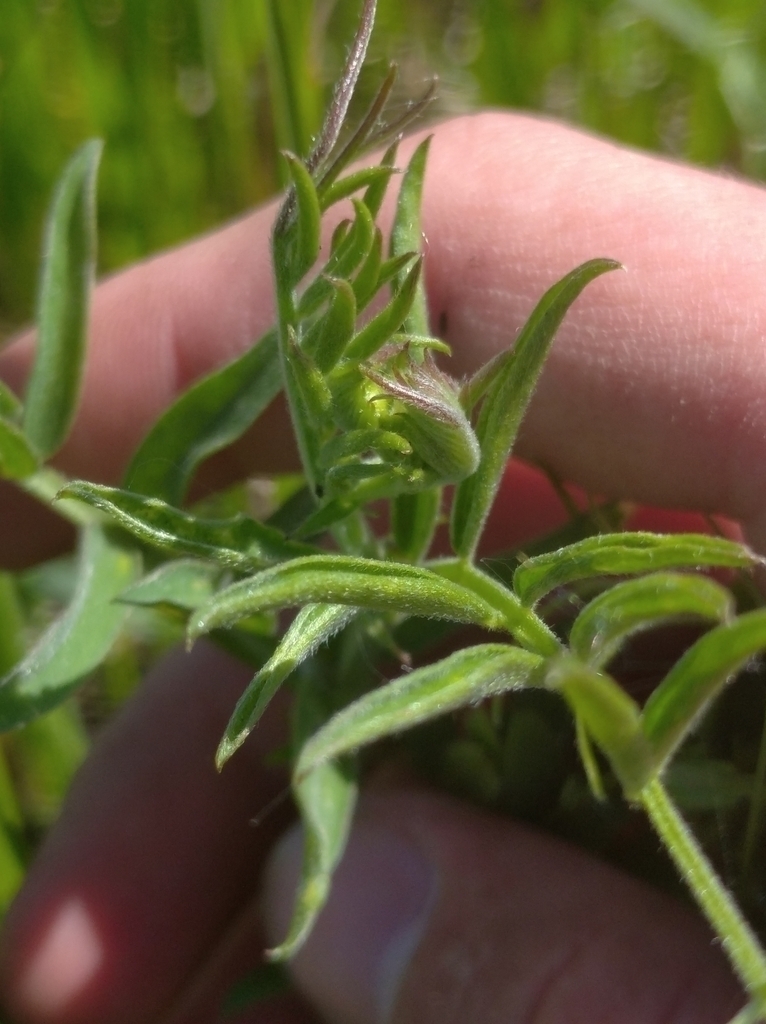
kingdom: Plantae
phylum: Tracheophyta
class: Magnoliopsida
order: Fabales
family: Fabaceae
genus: Vicia
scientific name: Vicia cracca
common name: Bird vetch
